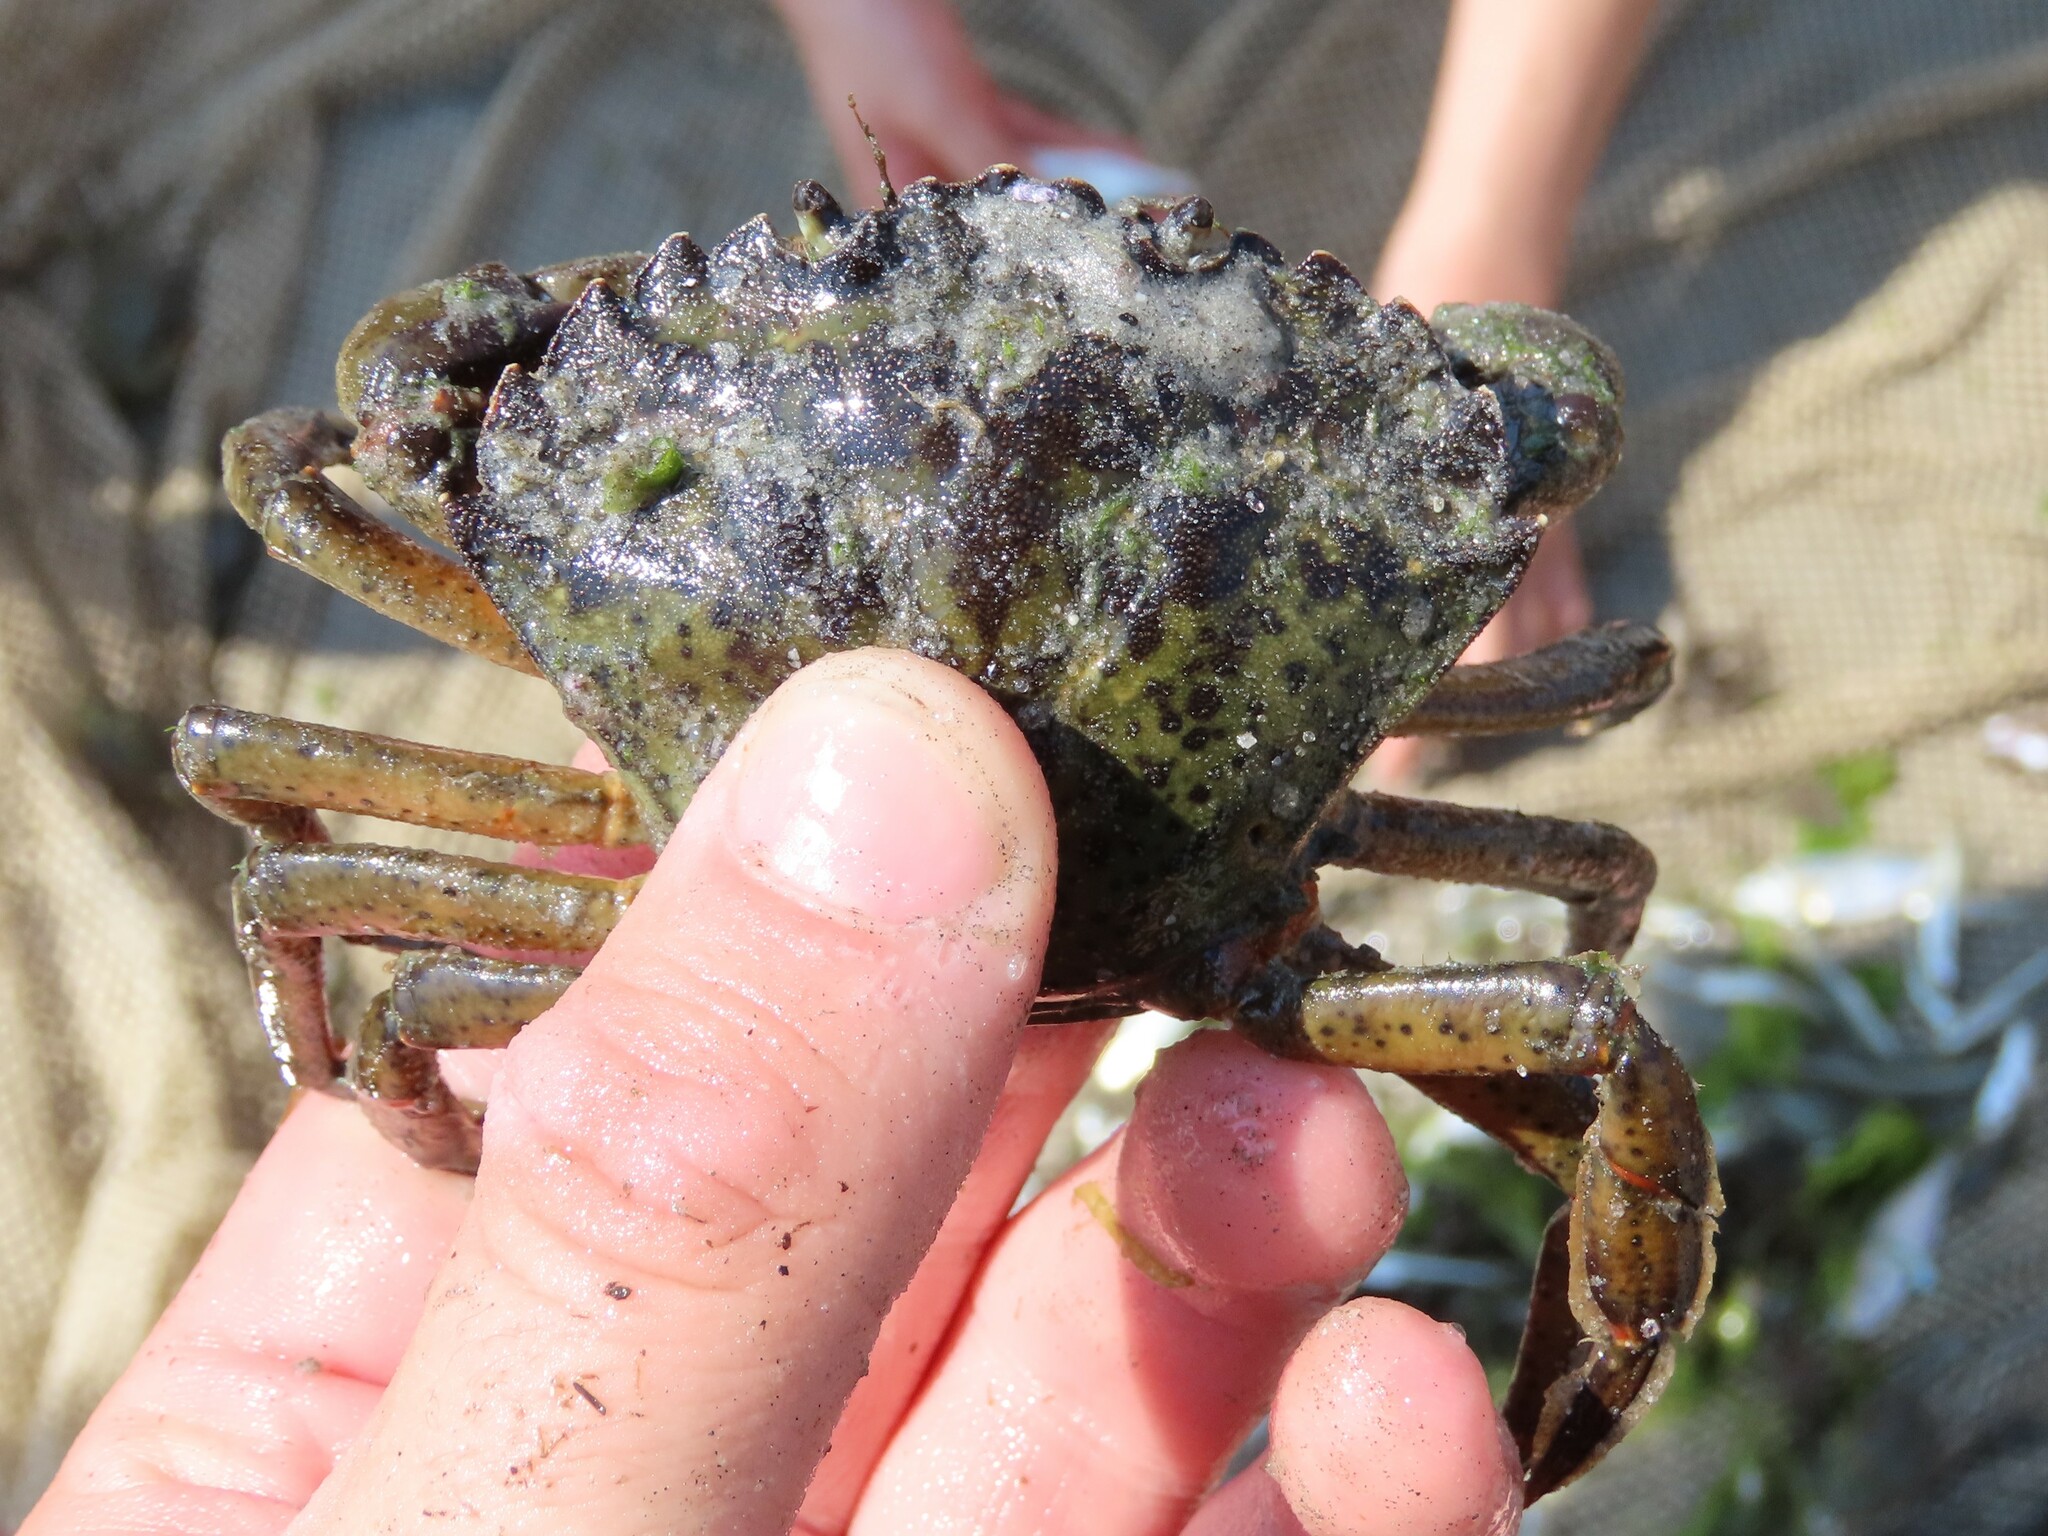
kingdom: Animalia
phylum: Arthropoda
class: Malacostraca
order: Decapoda
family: Carcinidae
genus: Carcinus
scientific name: Carcinus maenas
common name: European green crab
